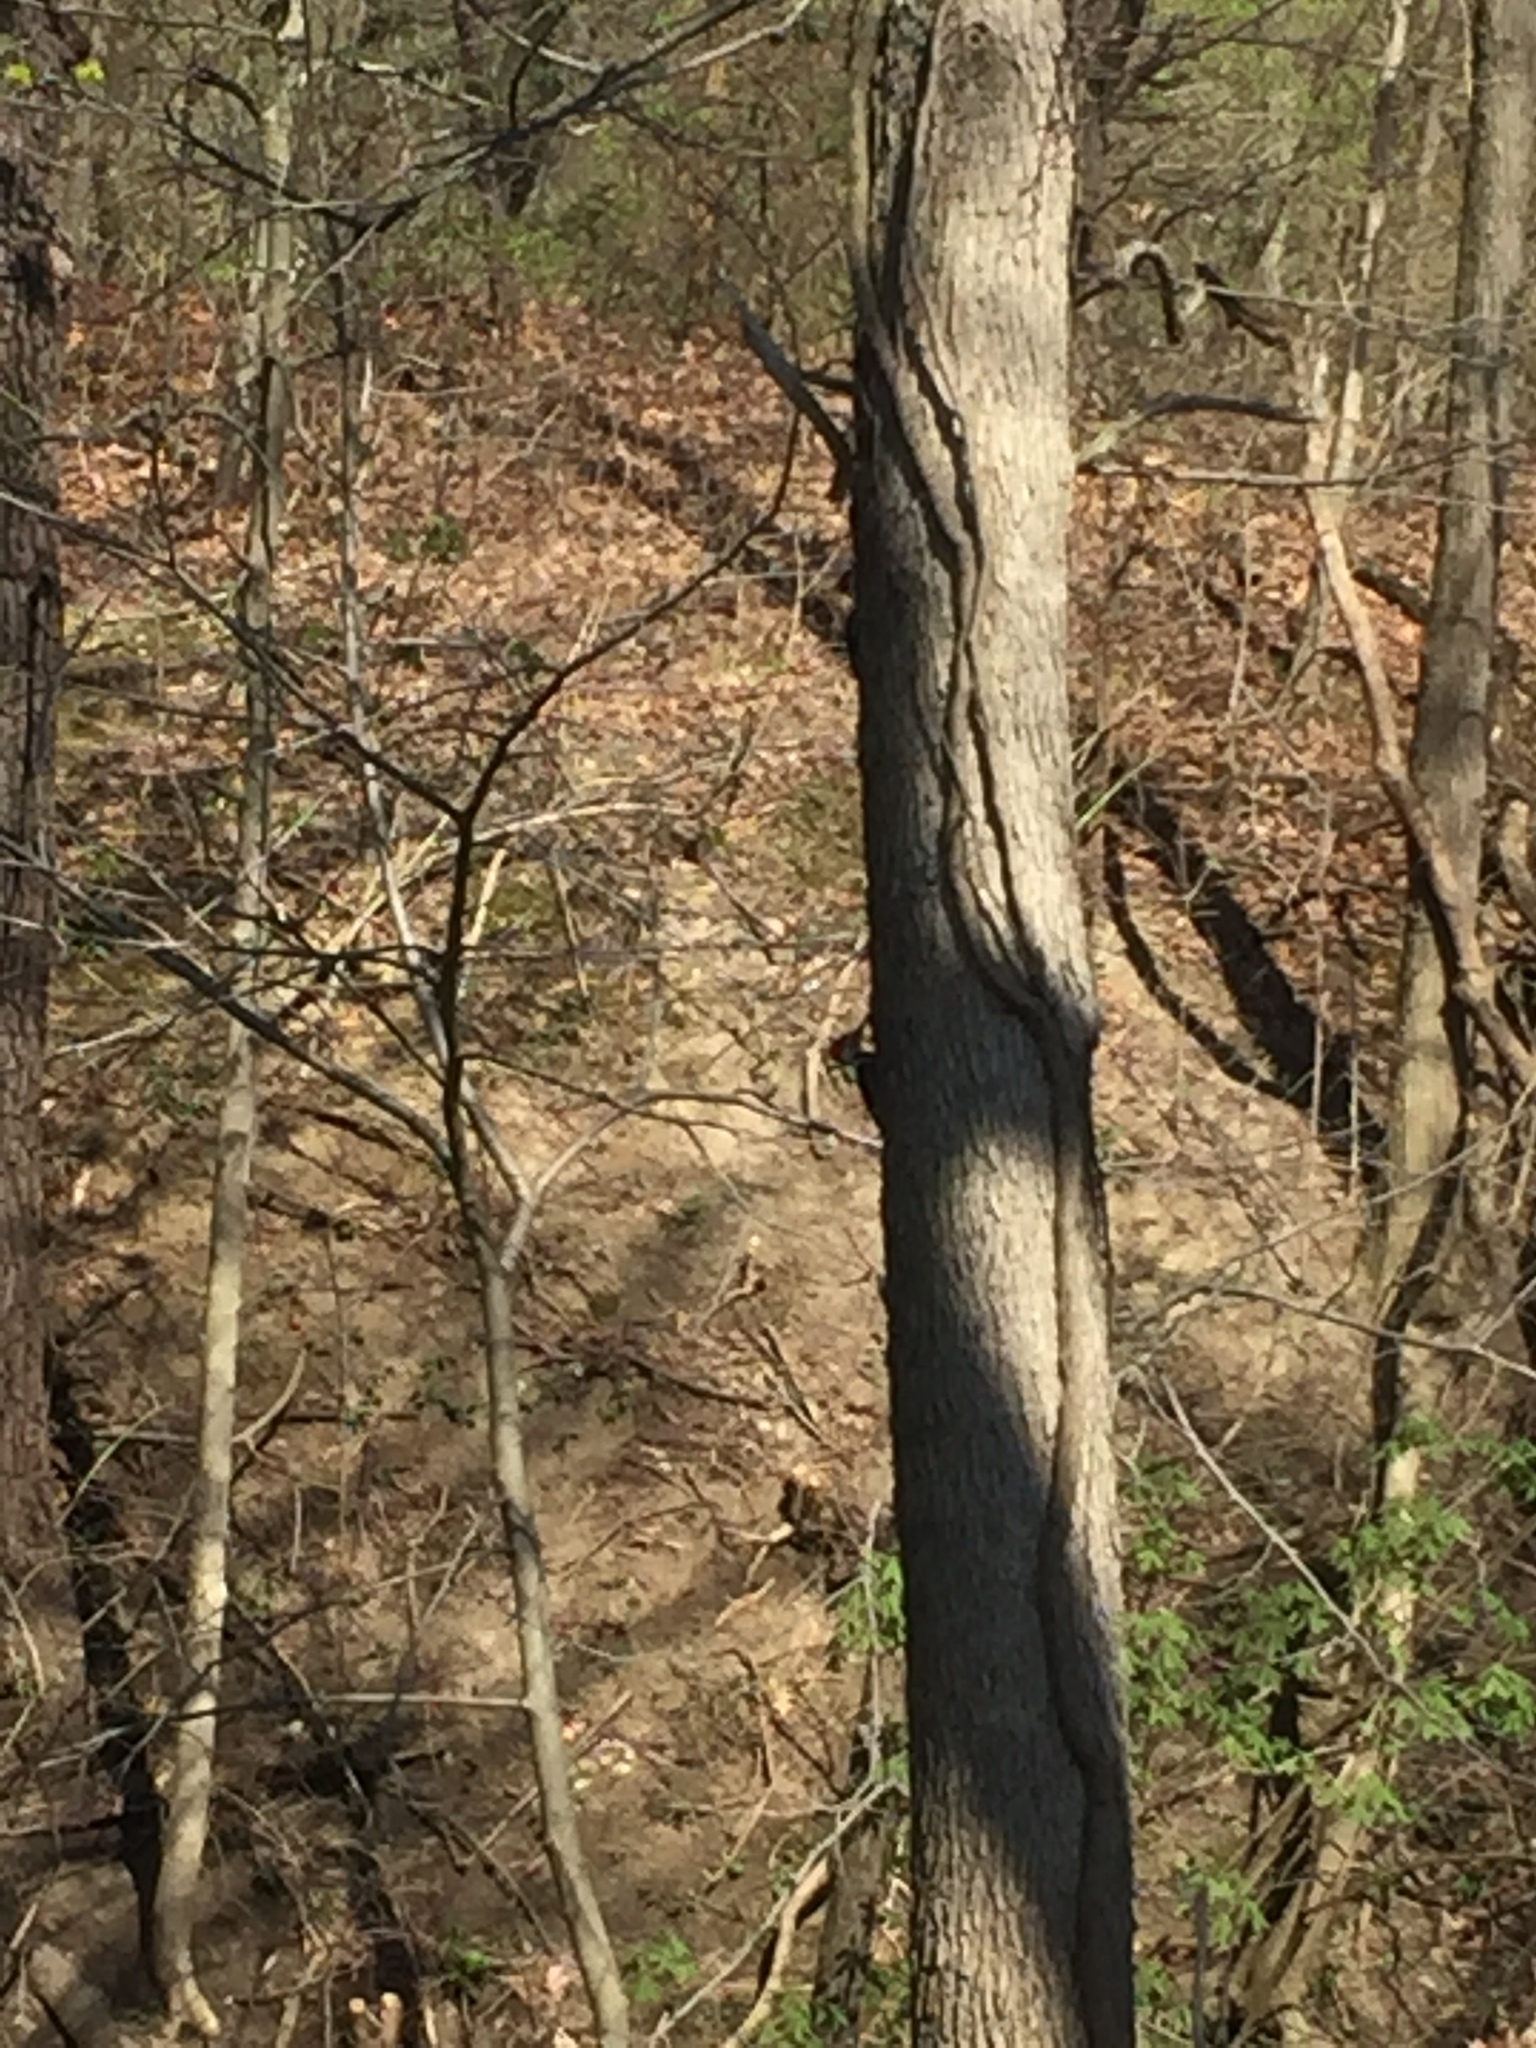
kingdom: Animalia
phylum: Chordata
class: Aves
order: Piciformes
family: Picidae
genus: Dryocopus
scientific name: Dryocopus pileatus
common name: Pileated woodpecker
